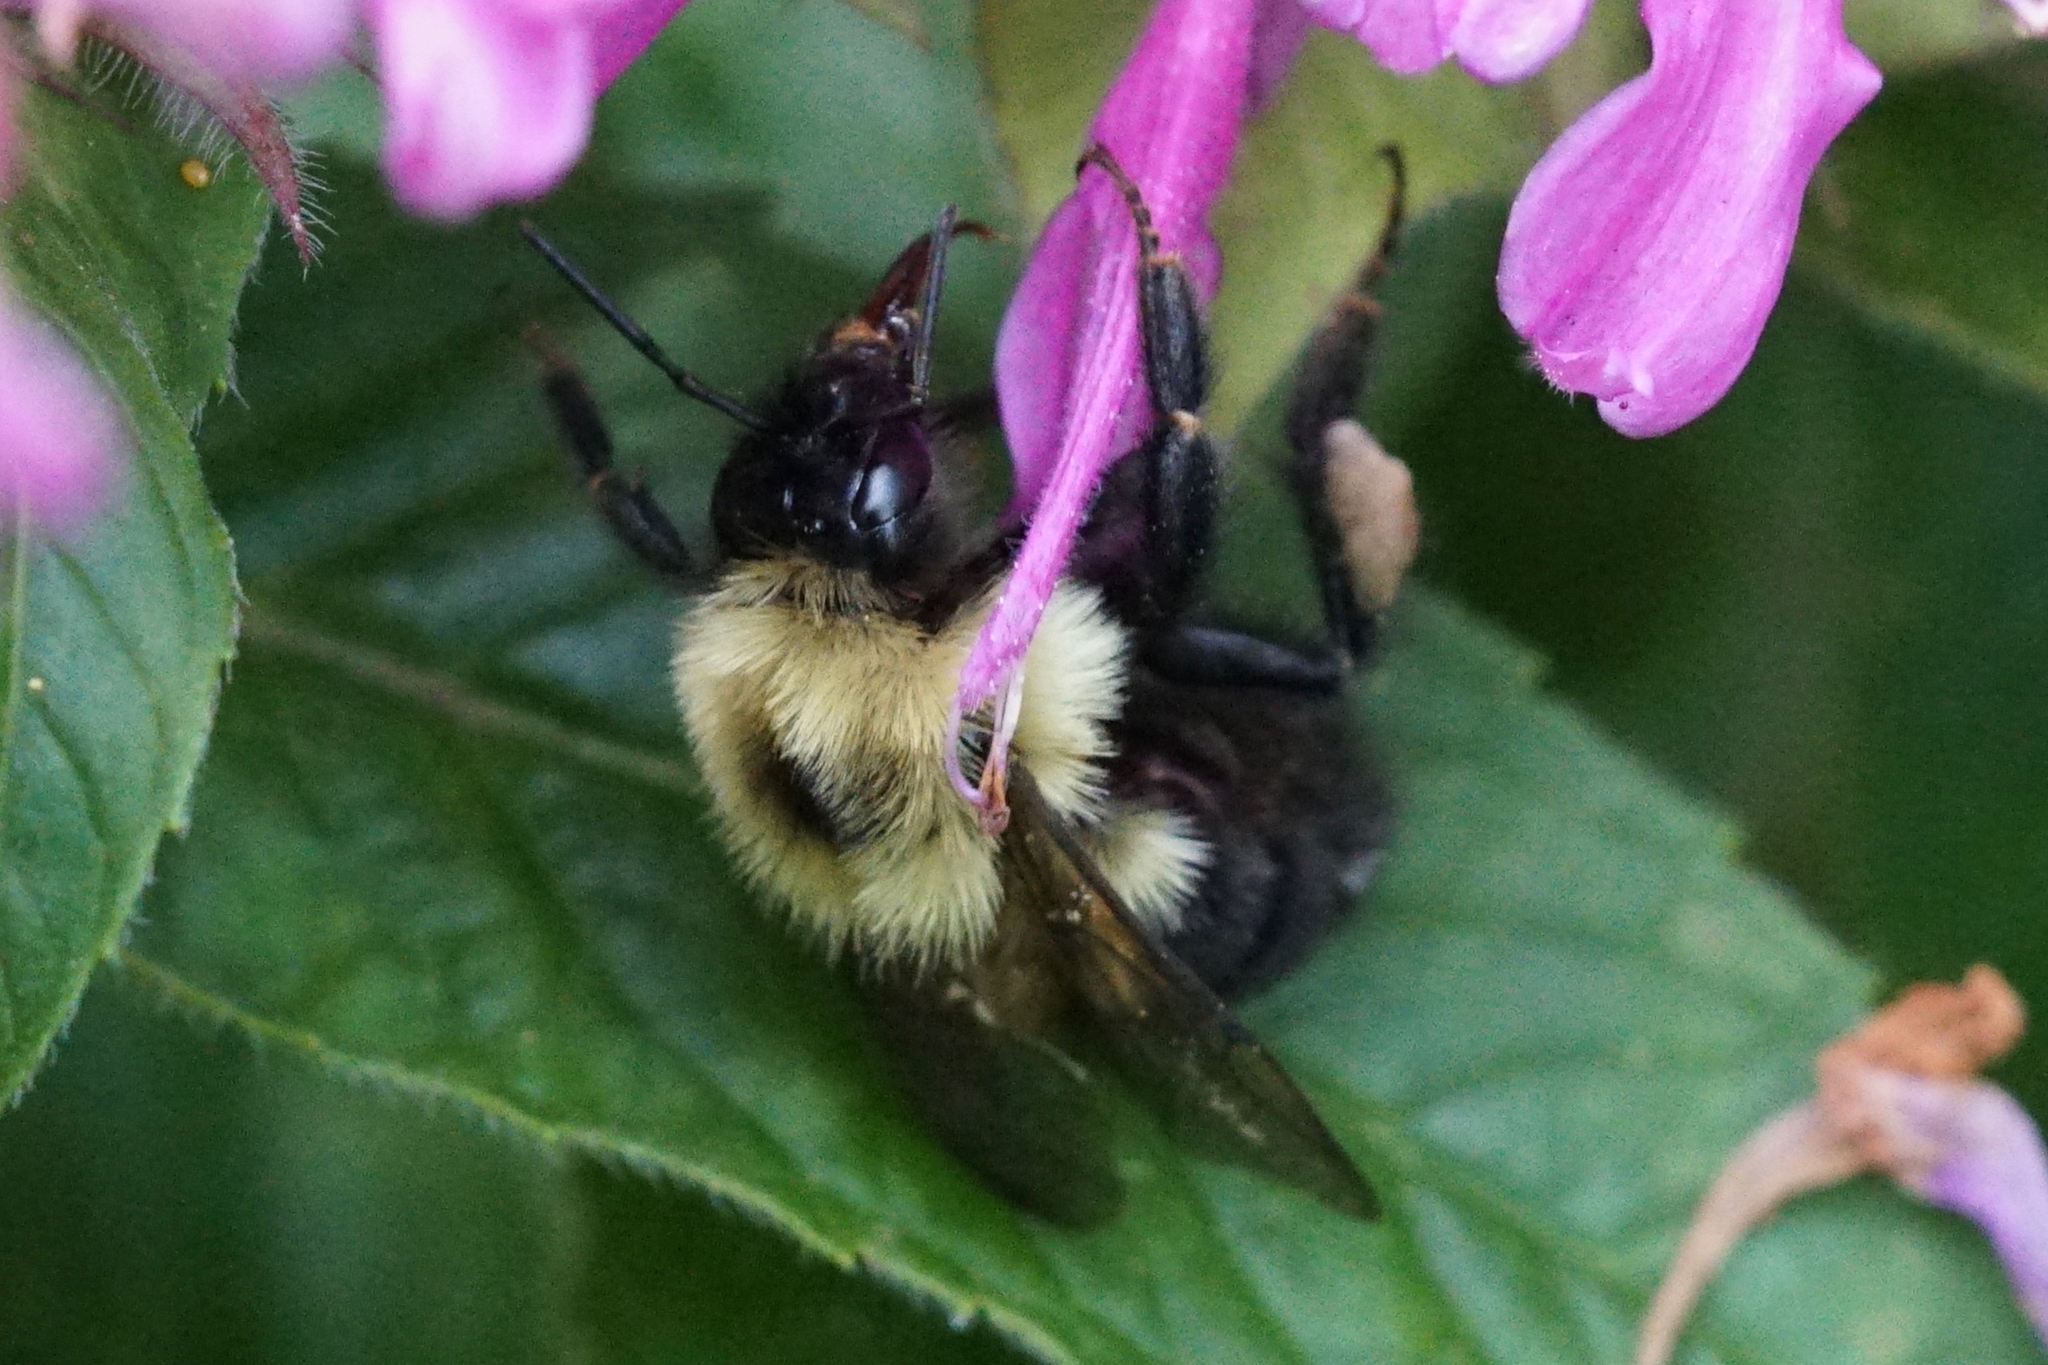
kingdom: Animalia
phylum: Arthropoda
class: Insecta
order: Hymenoptera
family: Apidae
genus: Bombus
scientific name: Bombus bimaculatus
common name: Two-spotted bumble bee
